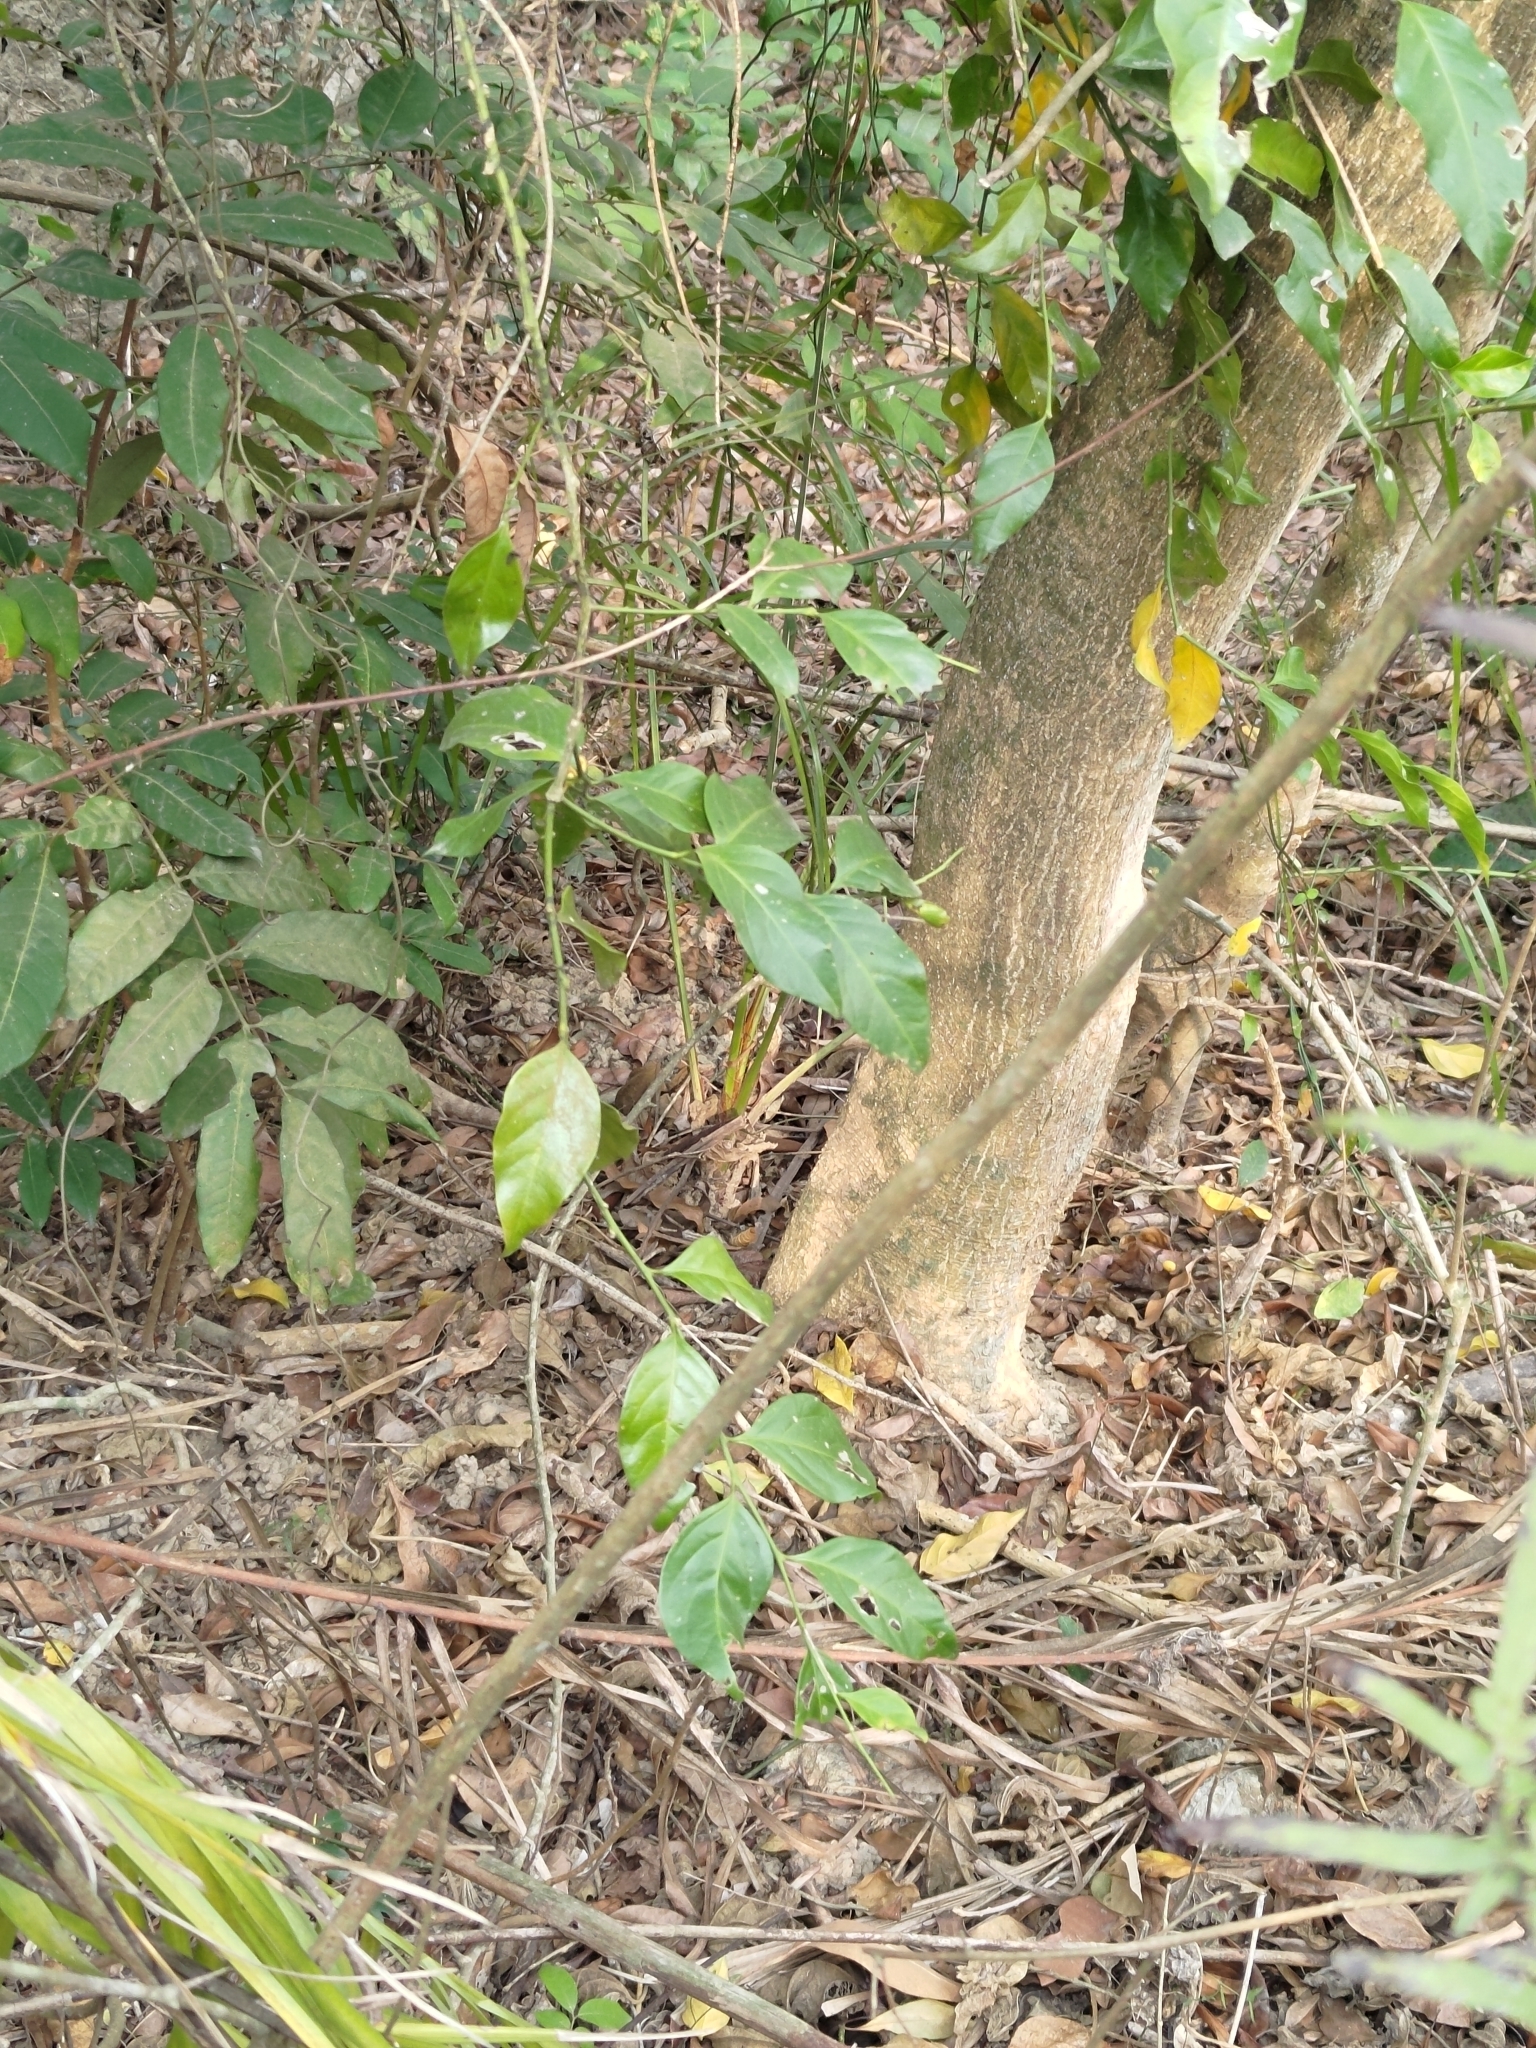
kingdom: Plantae
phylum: Tracheophyta
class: Magnoliopsida
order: Santalales
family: Opiliaceae
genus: Champereia
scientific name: Champereia manillana
